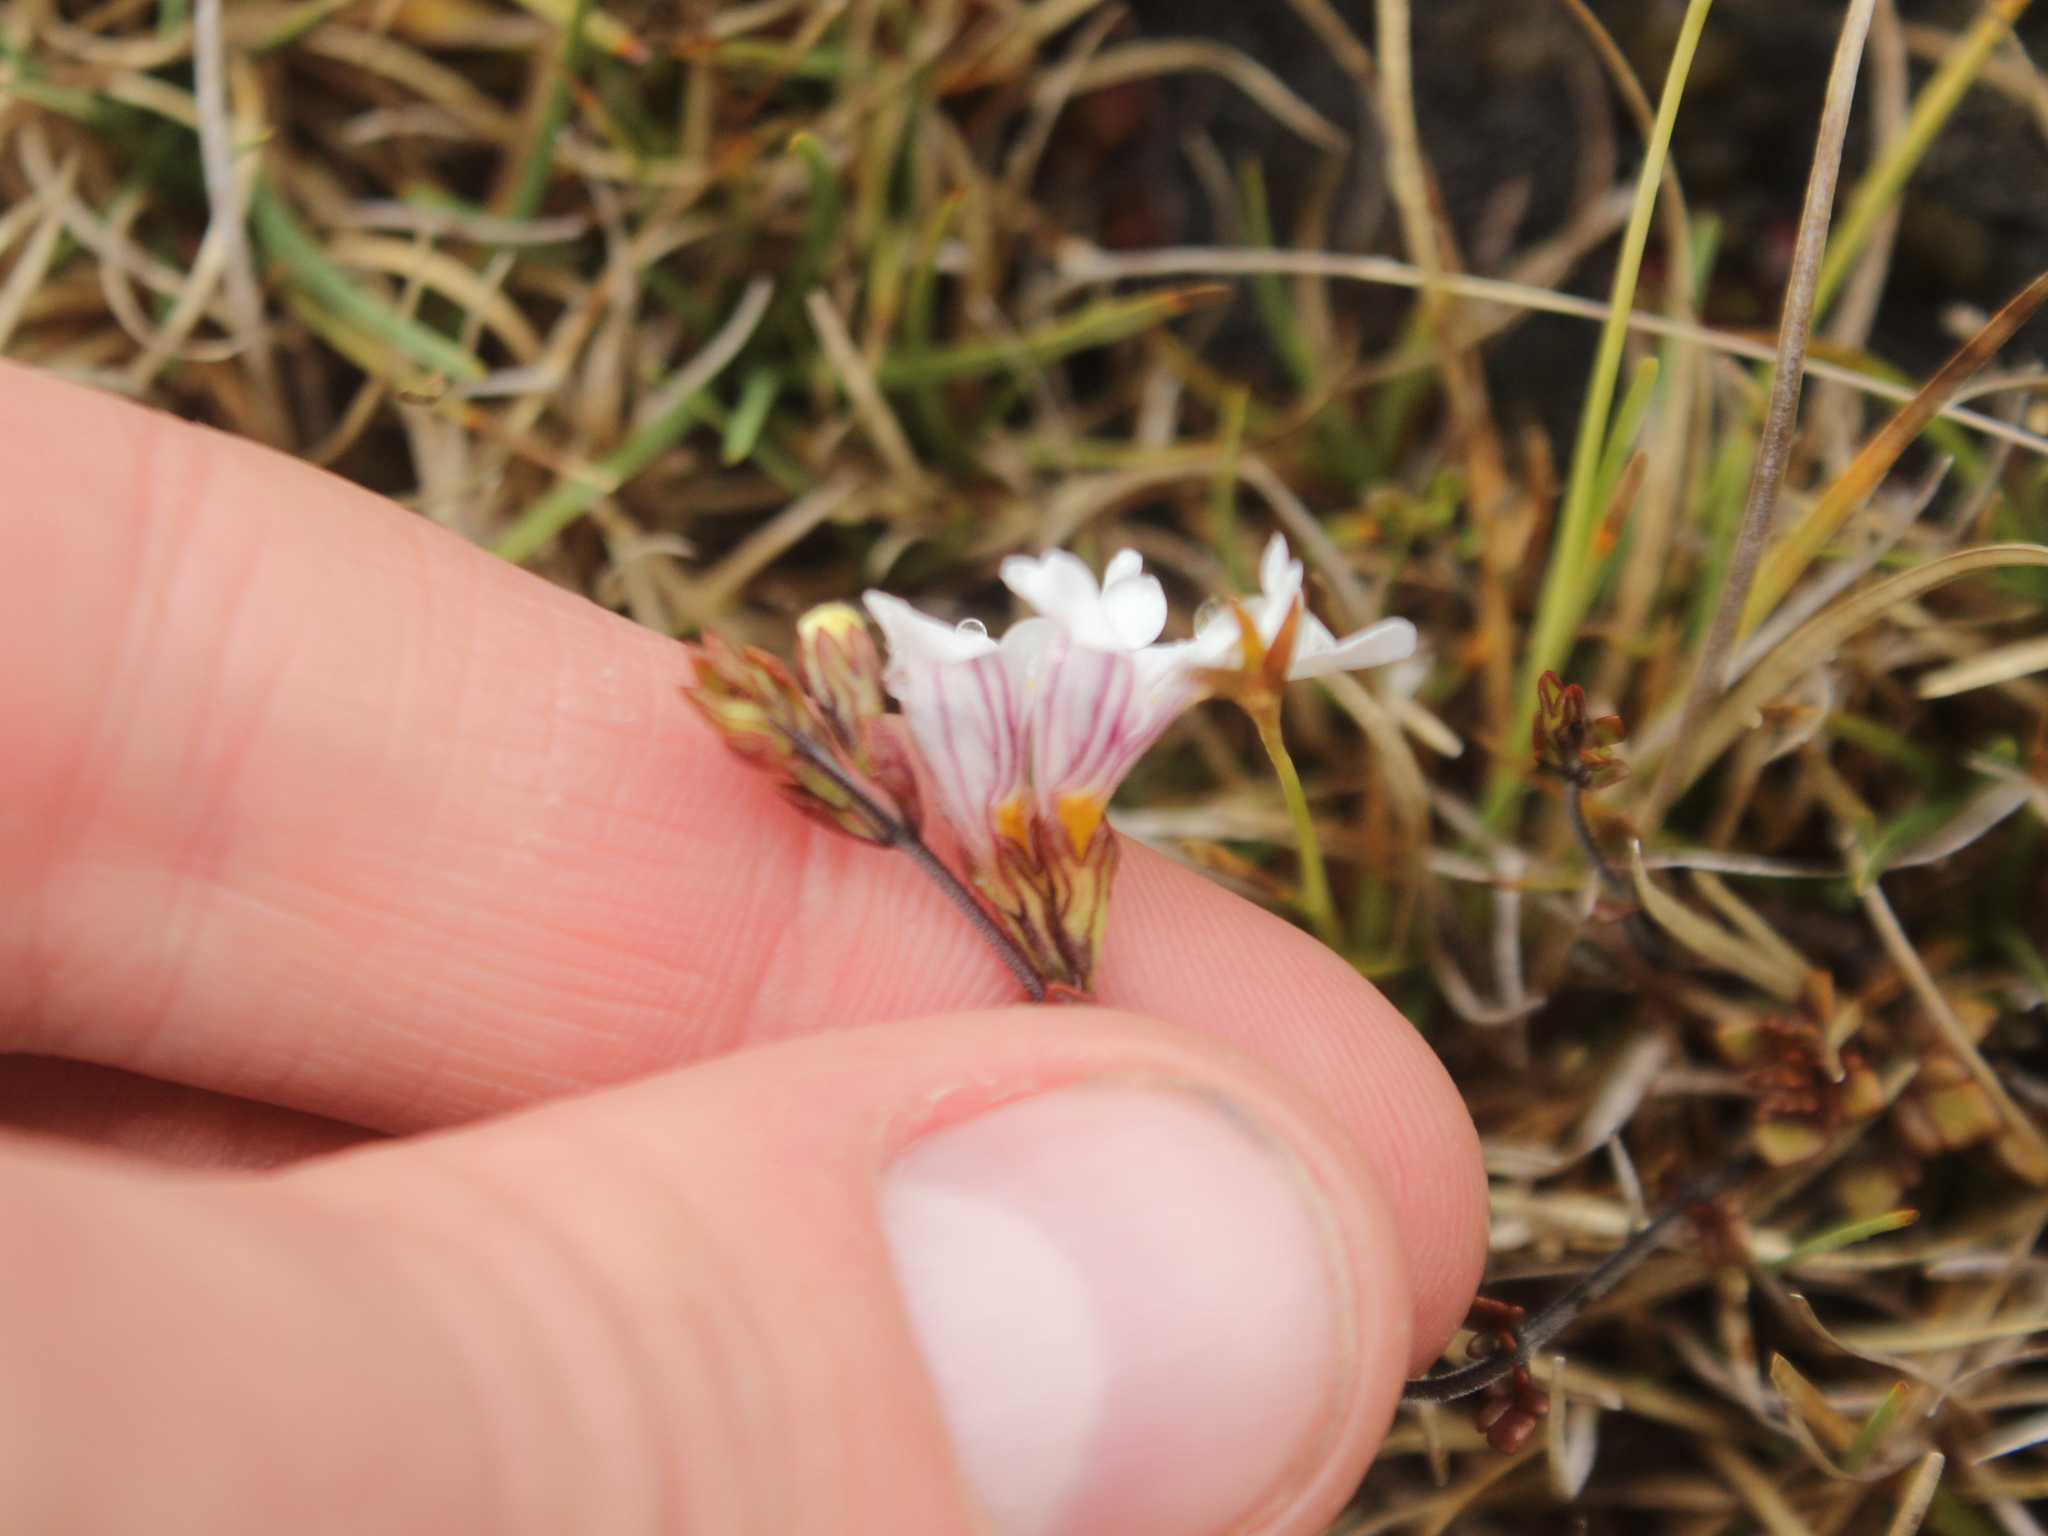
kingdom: Plantae
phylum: Tracheophyta
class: Magnoliopsida
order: Lamiales
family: Orobanchaceae
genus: Euphrasia
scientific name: Euphrasia cuneata
